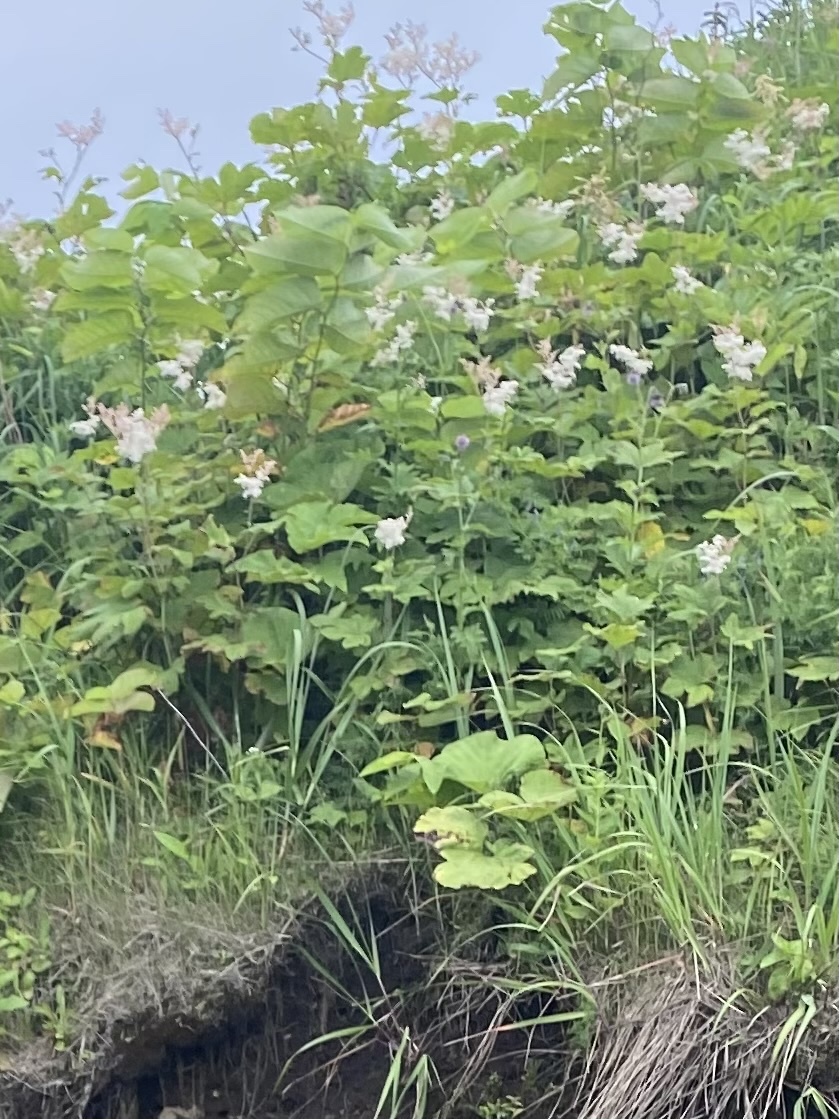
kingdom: Plantae
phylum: Tracheophyta
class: Magnoliopsida
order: Rosales
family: Rosaceae
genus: Filipendula
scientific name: Filipendula camtschatica
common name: Giant meadowsweet
